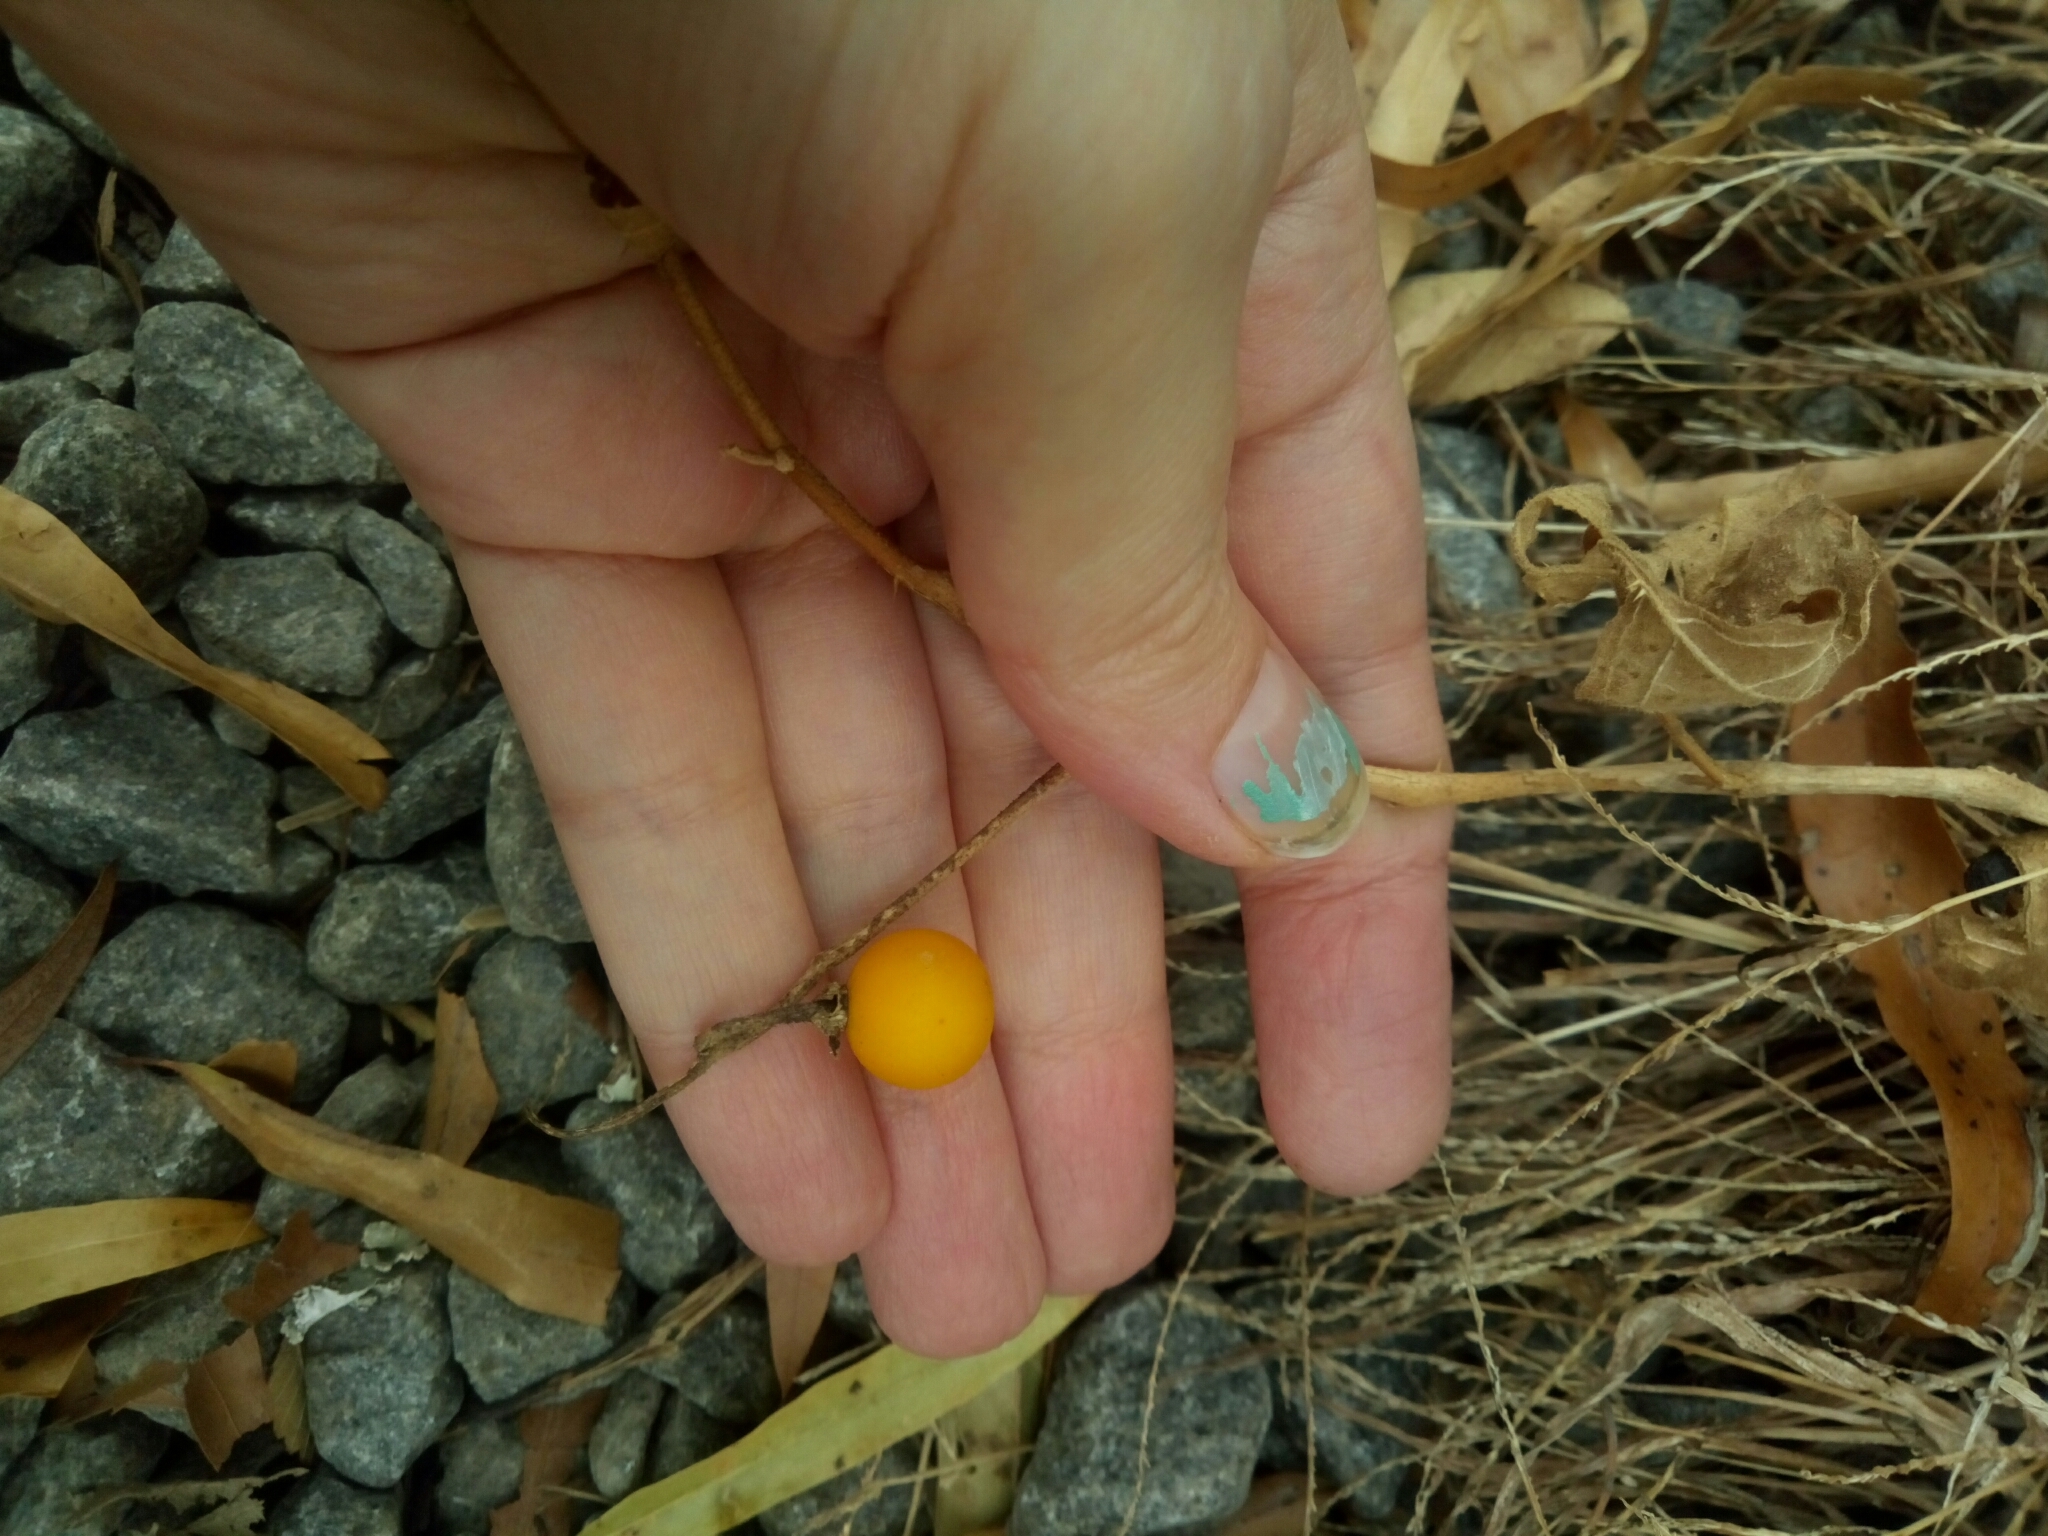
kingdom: Plantae
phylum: Tracheophyta
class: Magnoliopsida
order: Solanales
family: Solanaceae
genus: Solanum
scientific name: Solanum carolinense
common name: Horse-nettle
